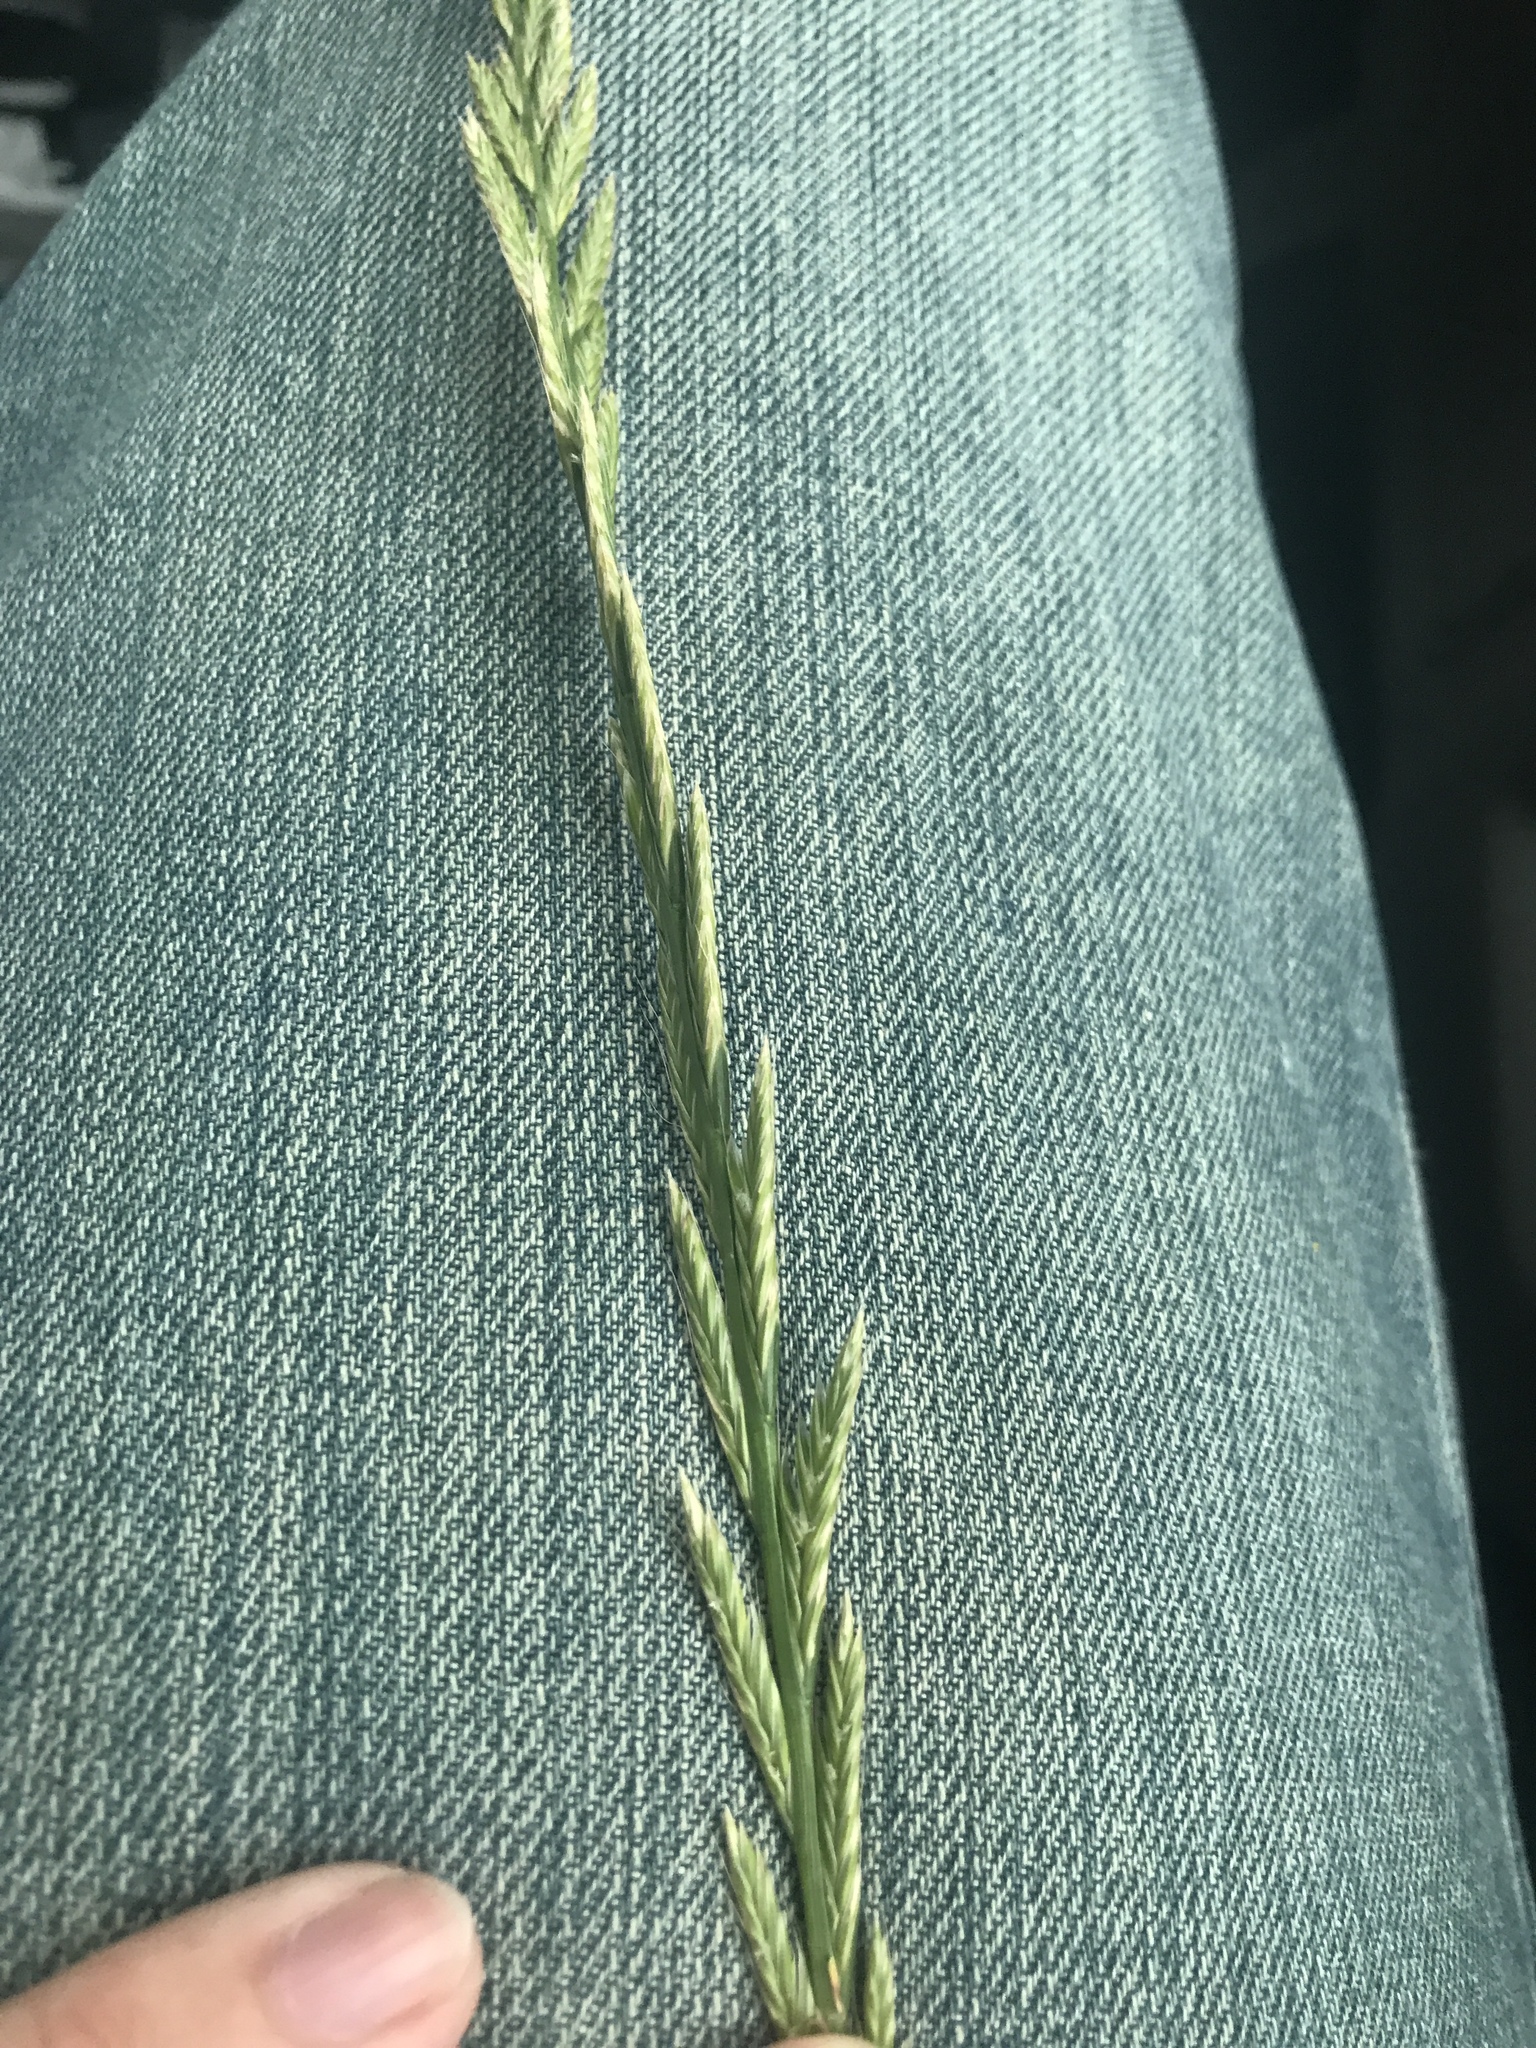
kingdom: Plantae
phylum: Tracheophyta
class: Liliopsida
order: Poales
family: Poaceae
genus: Lolium
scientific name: Lolium perenne
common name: Perennial ryegrass
